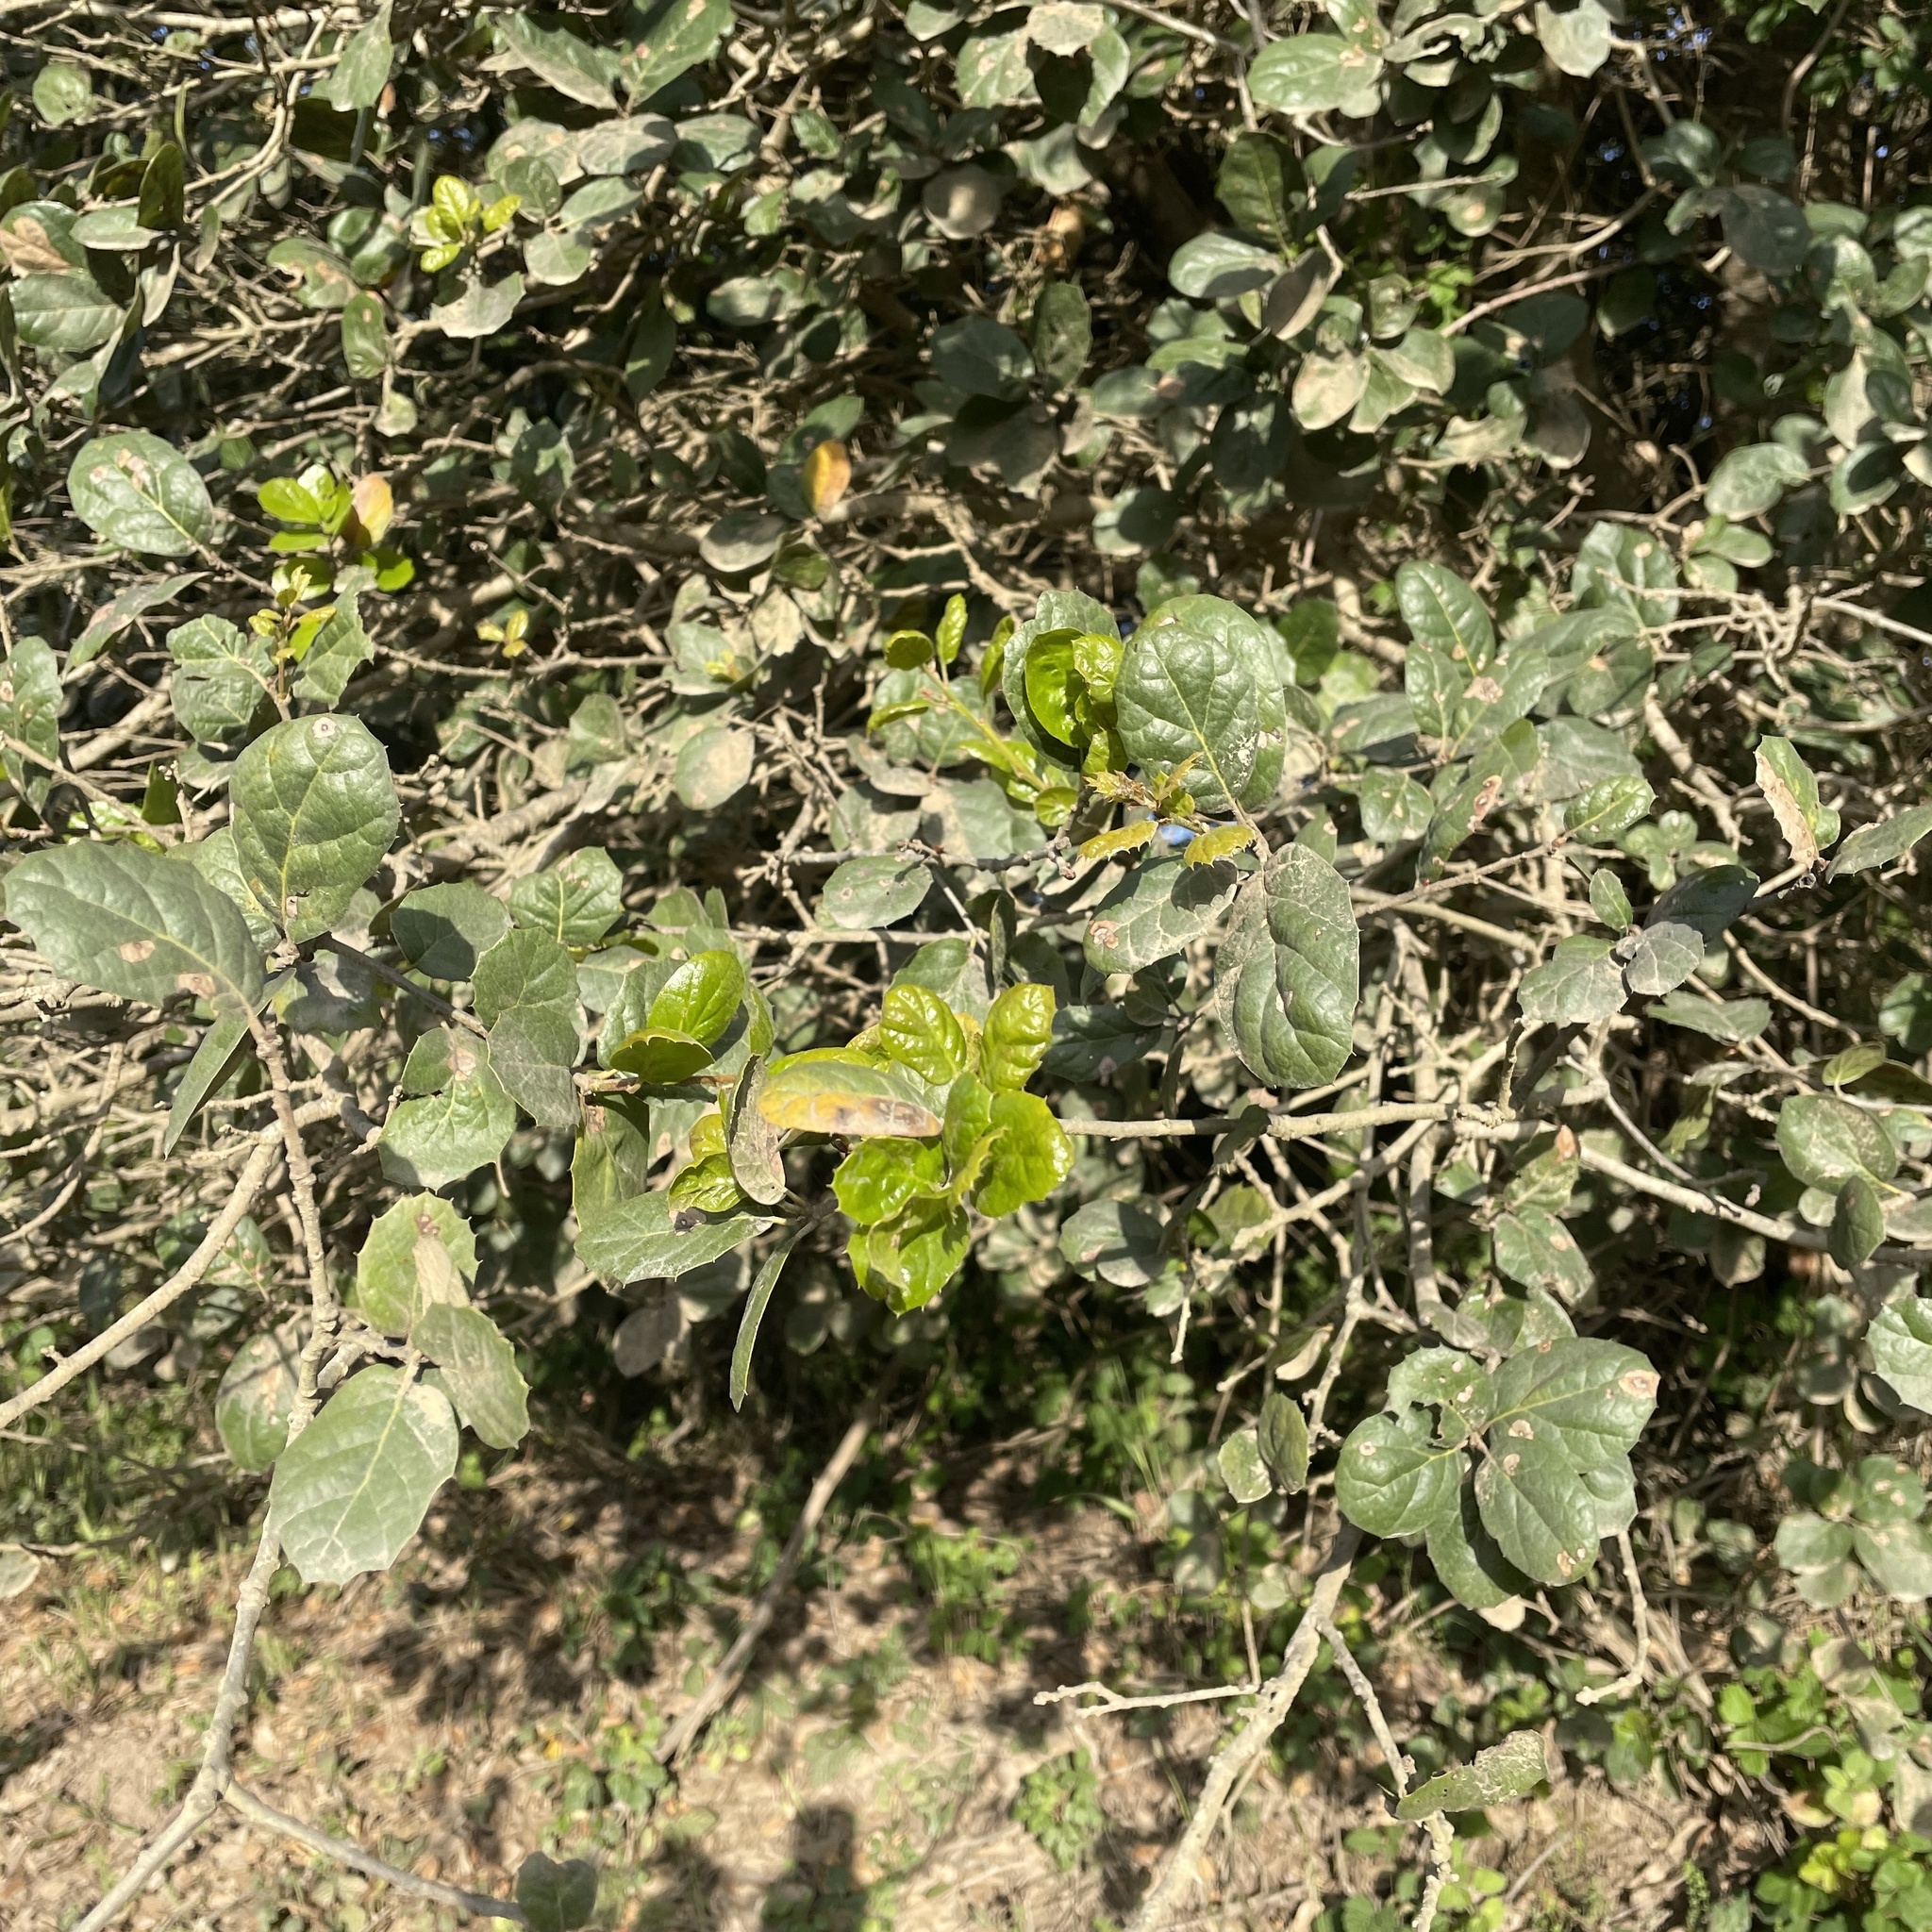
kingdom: Plantae
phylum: Tracheophyta
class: Magnoliopsida
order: Fagales
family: Fagaceae
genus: Quercus
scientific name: Quercus agrifolia
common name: California live oak
